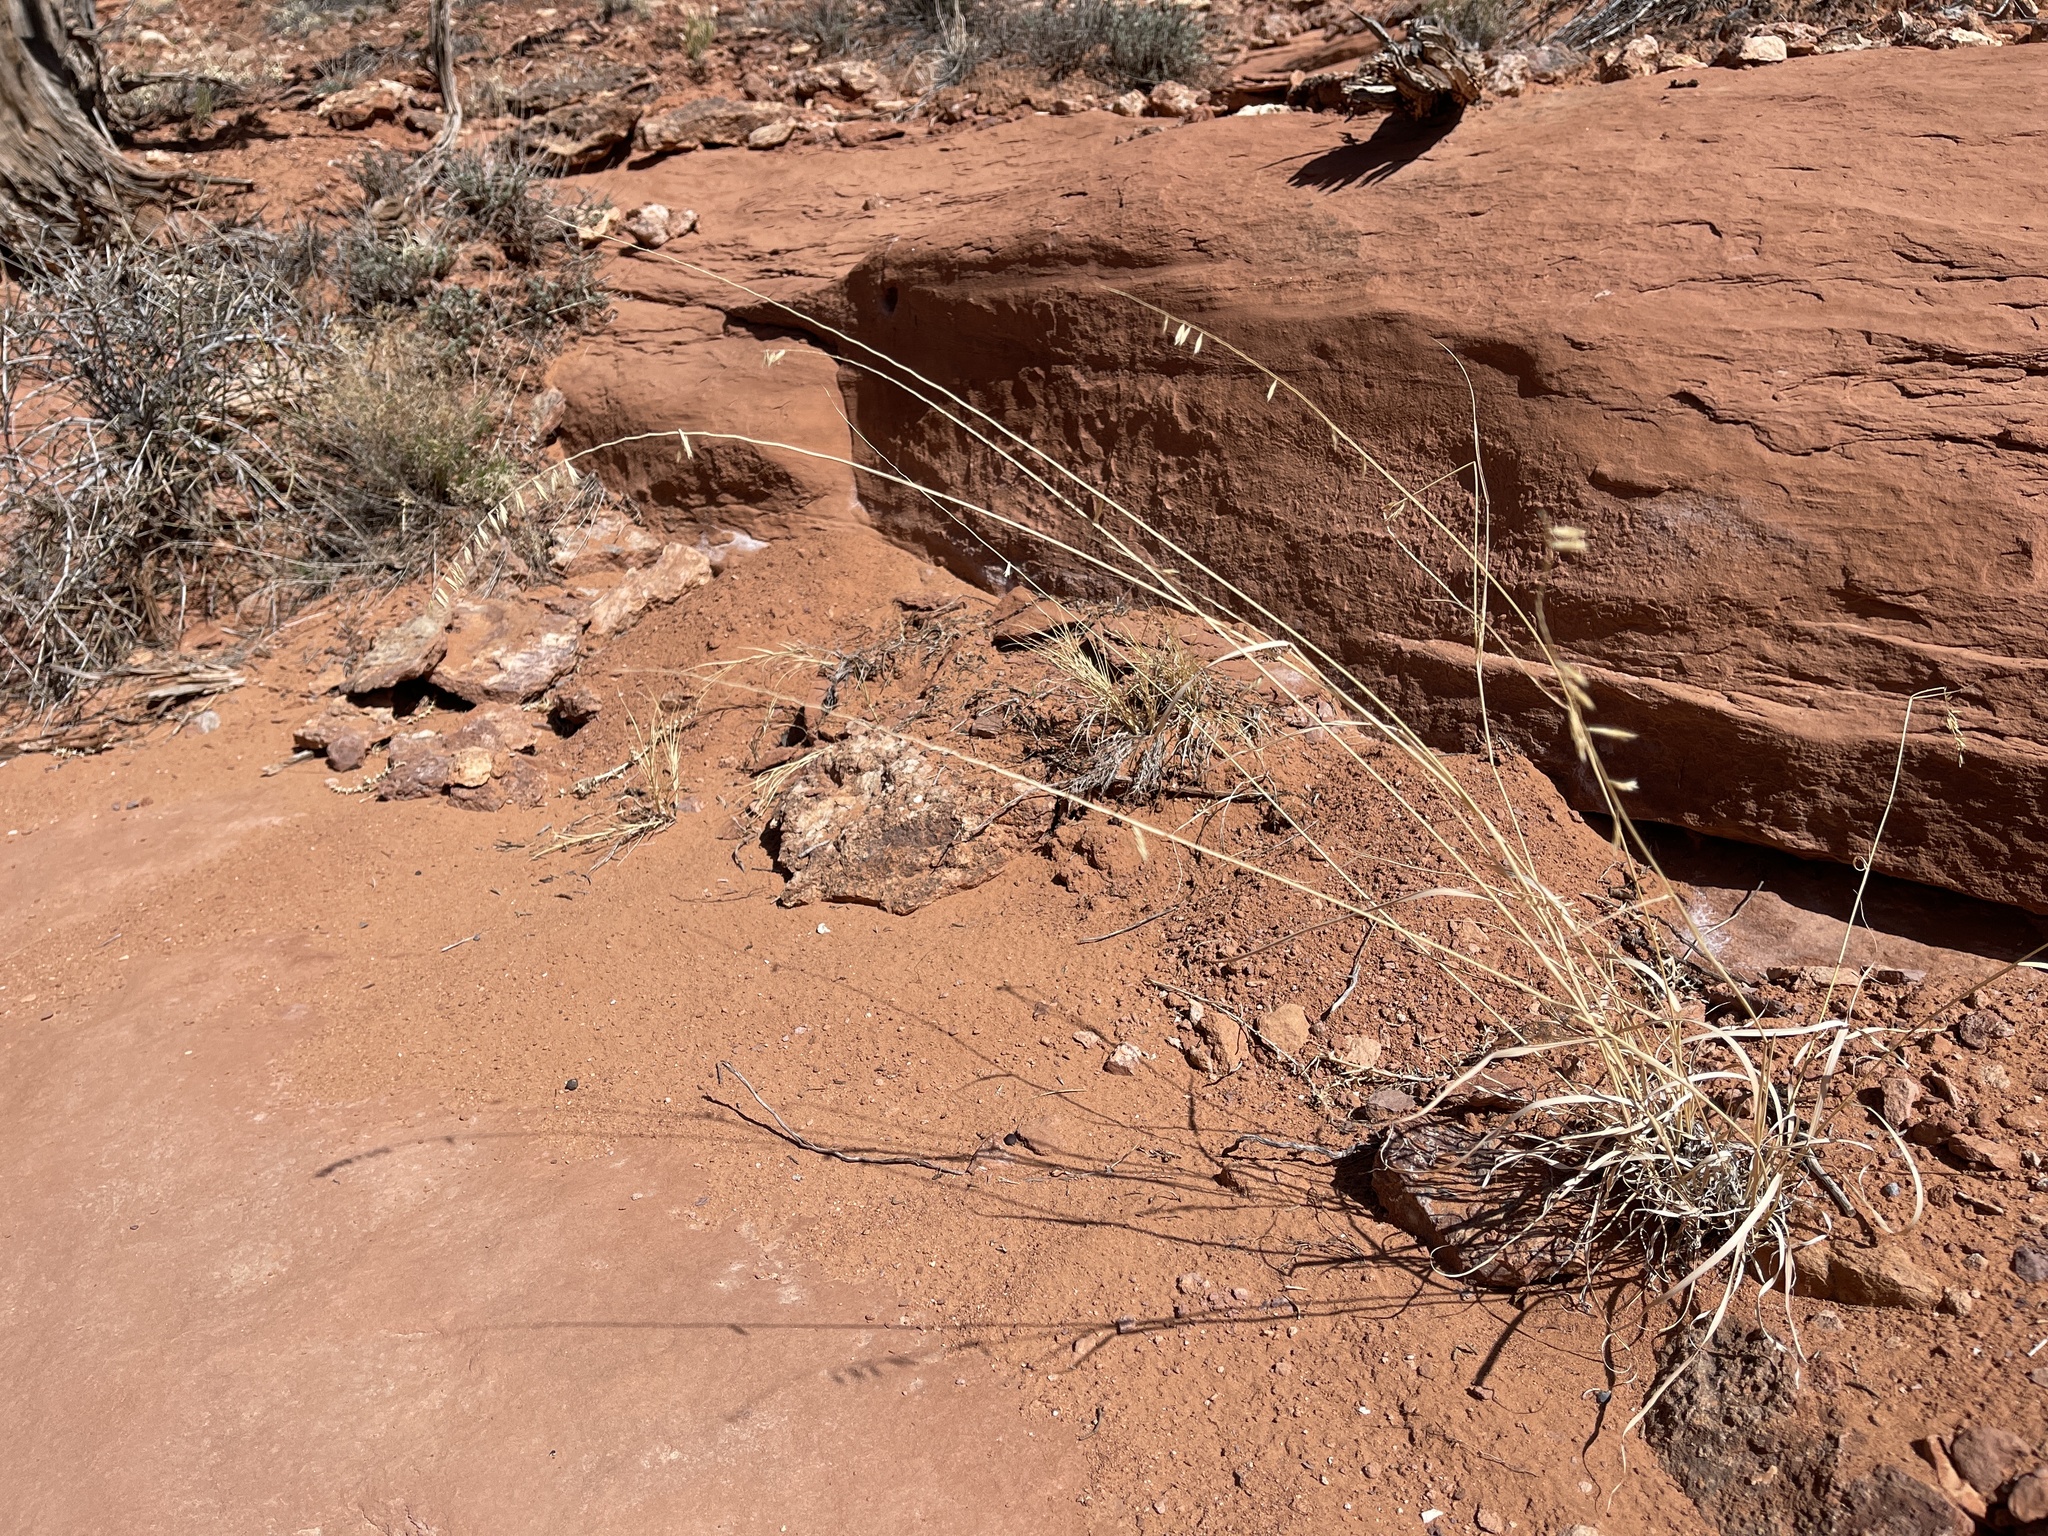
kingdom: Plantae
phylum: Tracheophyta
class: Liliopsida
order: Poales
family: Poaceae
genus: Bouteloua
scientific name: Bouteloua curtipendula
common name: Side-oats grama
